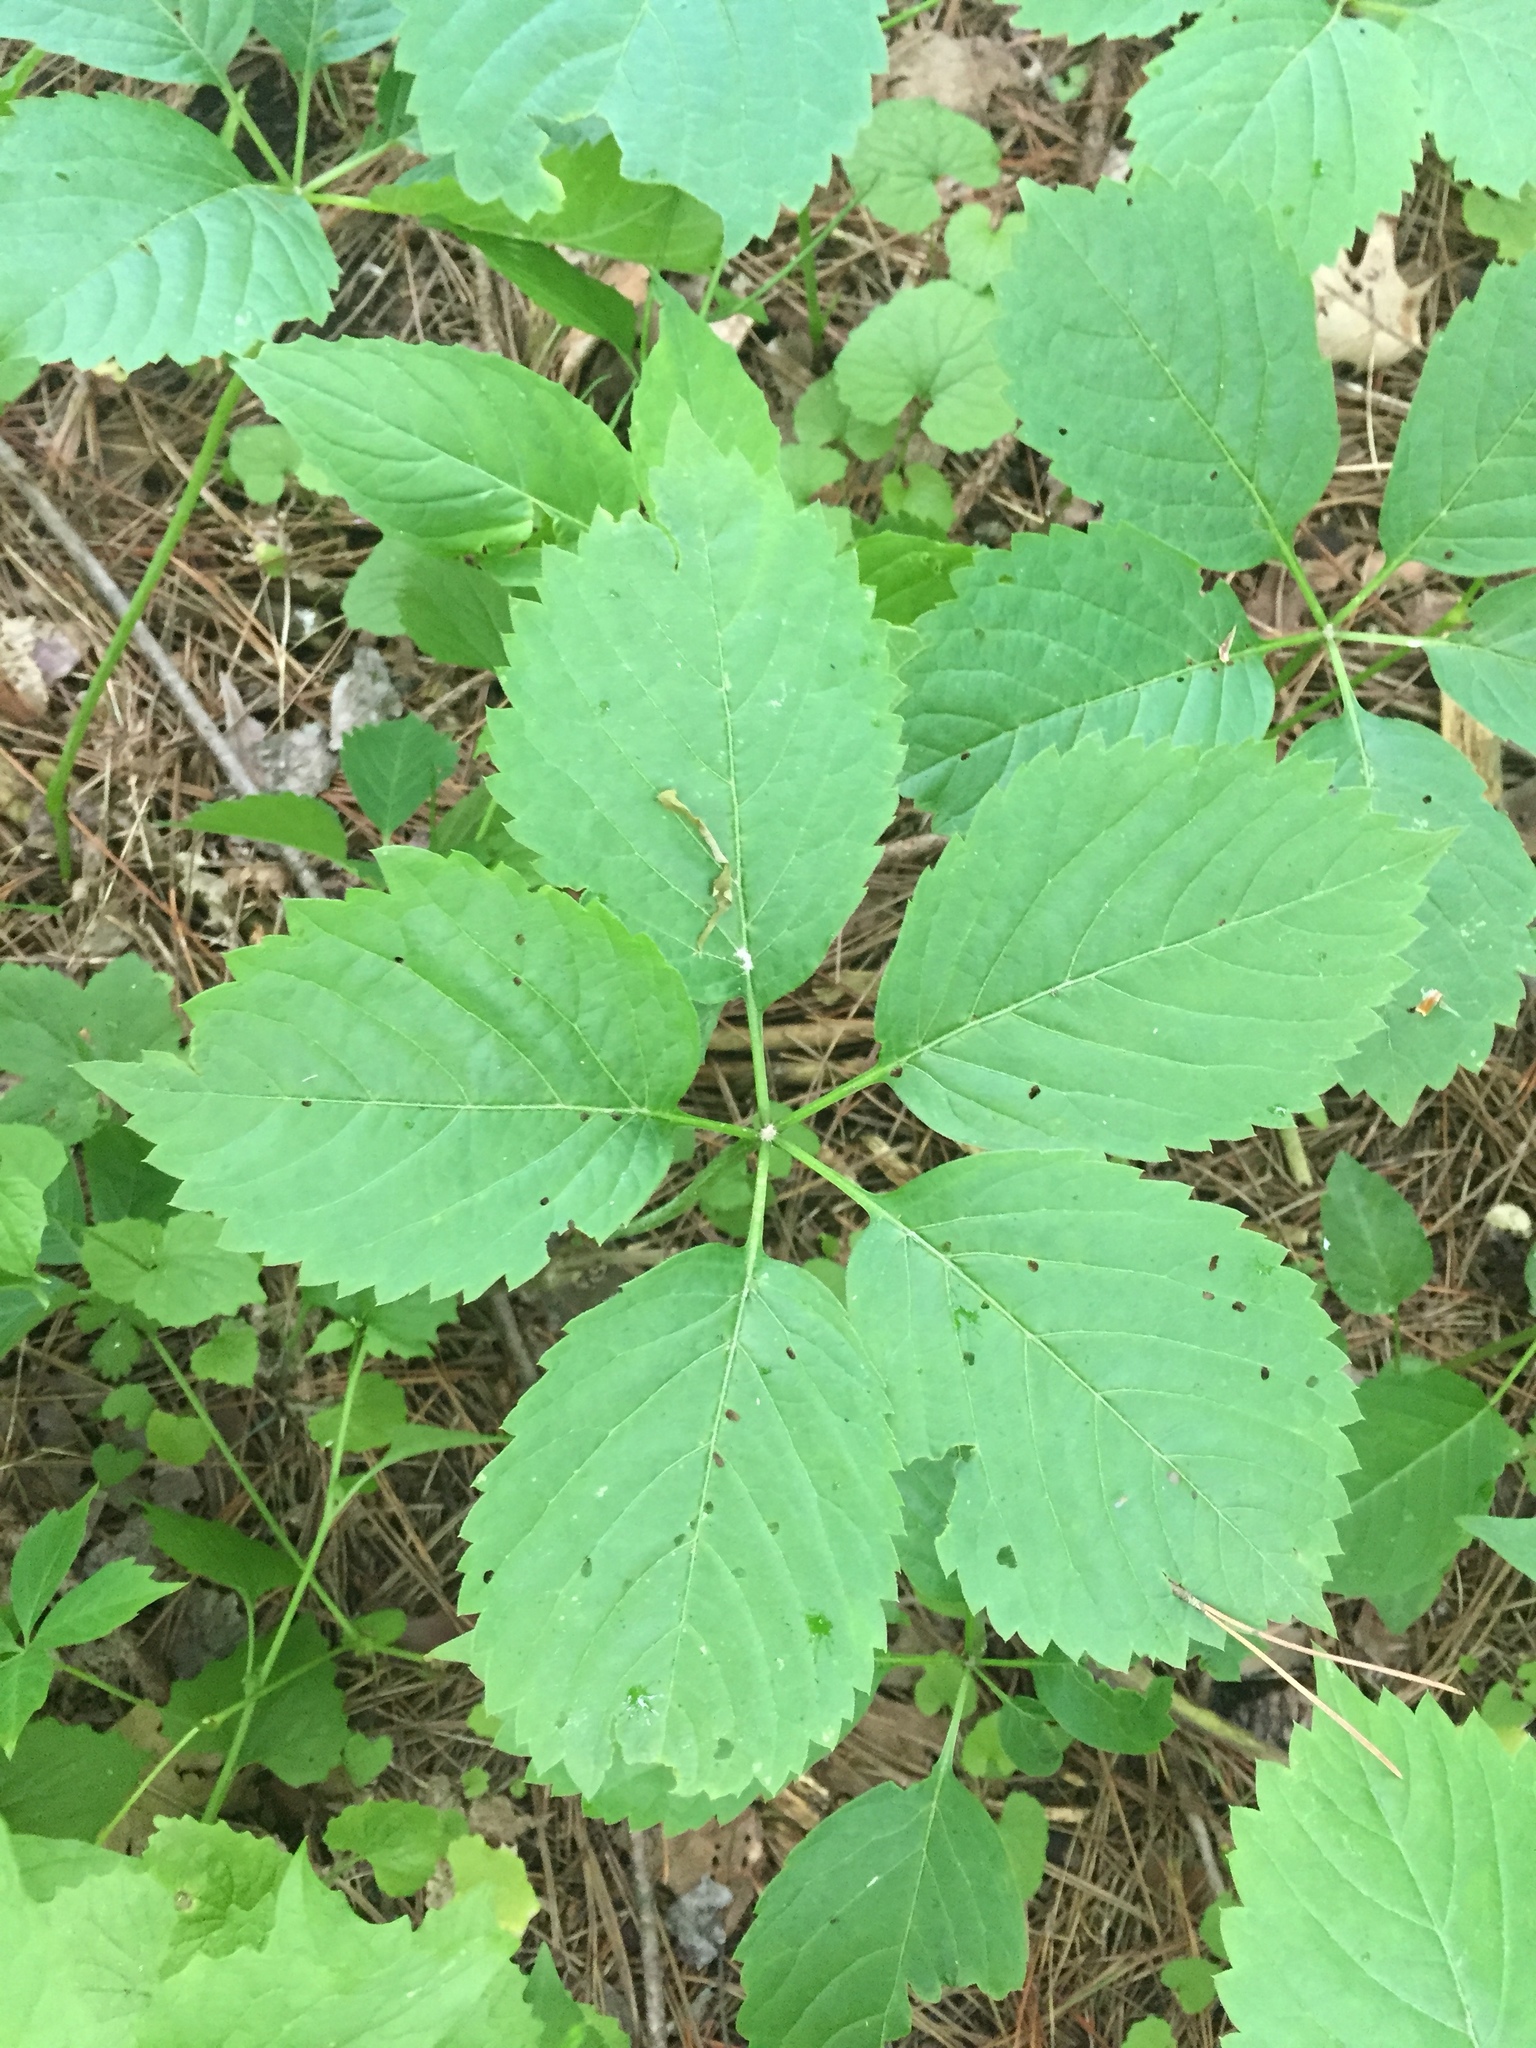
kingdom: Plantae
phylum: Tracheophyta
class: Magnoliopsida
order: Vitales
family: Vitaceae
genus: Parthenocissus
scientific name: Parthenocissus inserta
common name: False virginia-creeper
